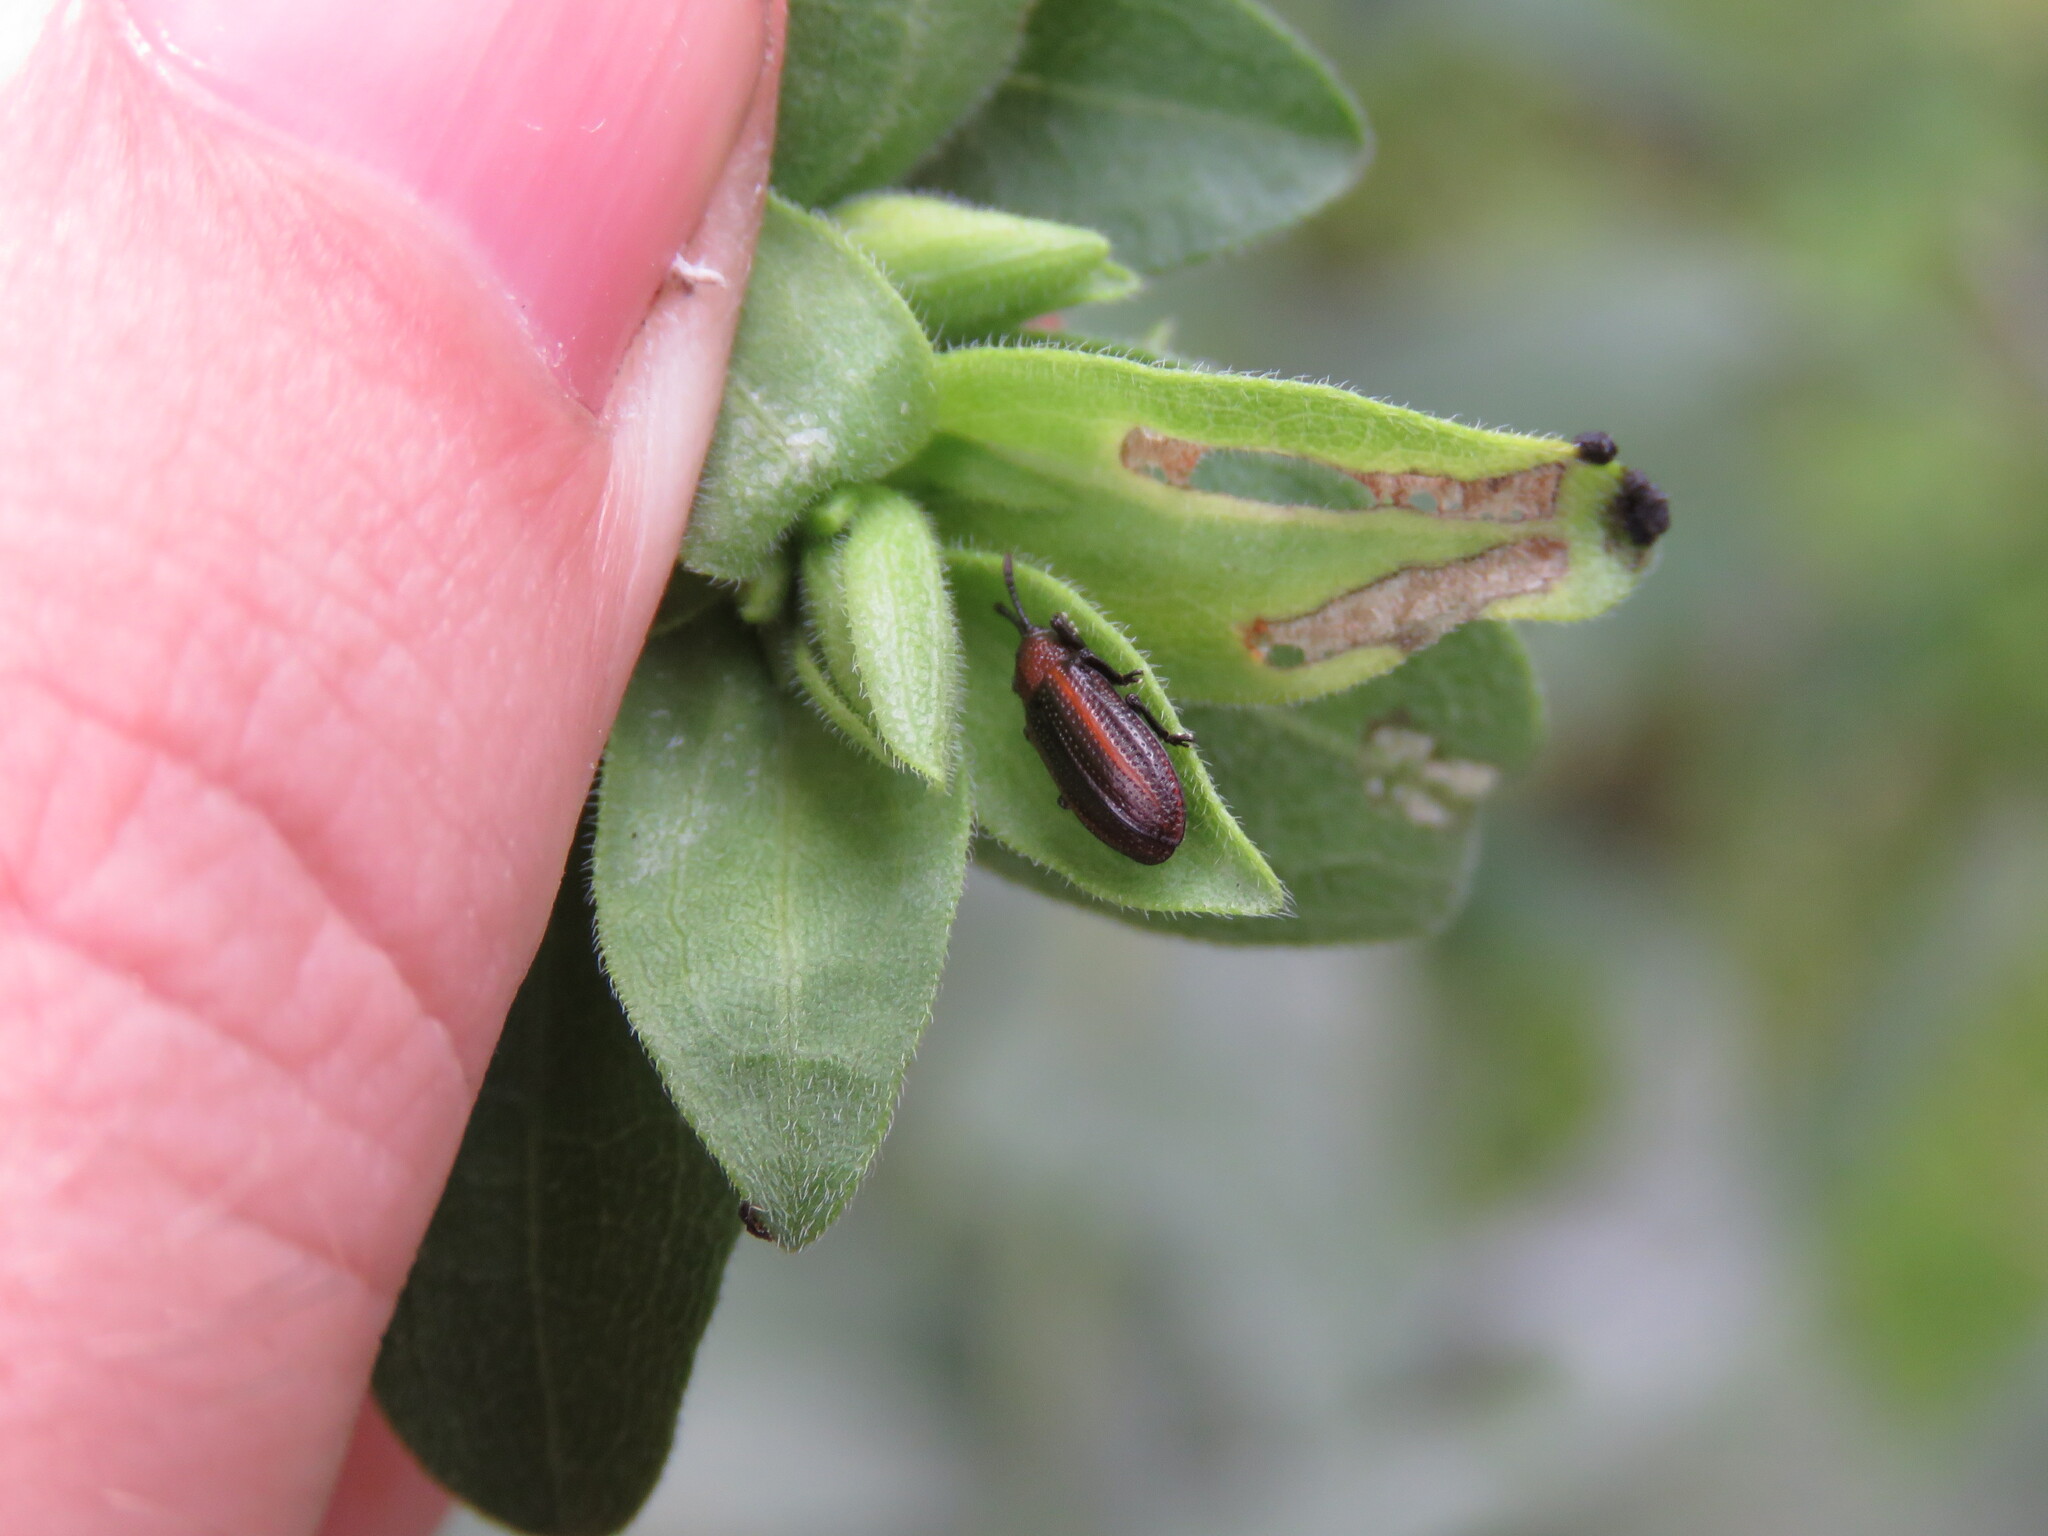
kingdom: Animalia
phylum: Arthropoda
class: Insecta
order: Coleoptera
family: Chrysomelidae
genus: Microrhopala
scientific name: Microrhopala vittata
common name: Goldenrod leaf miner beetle
